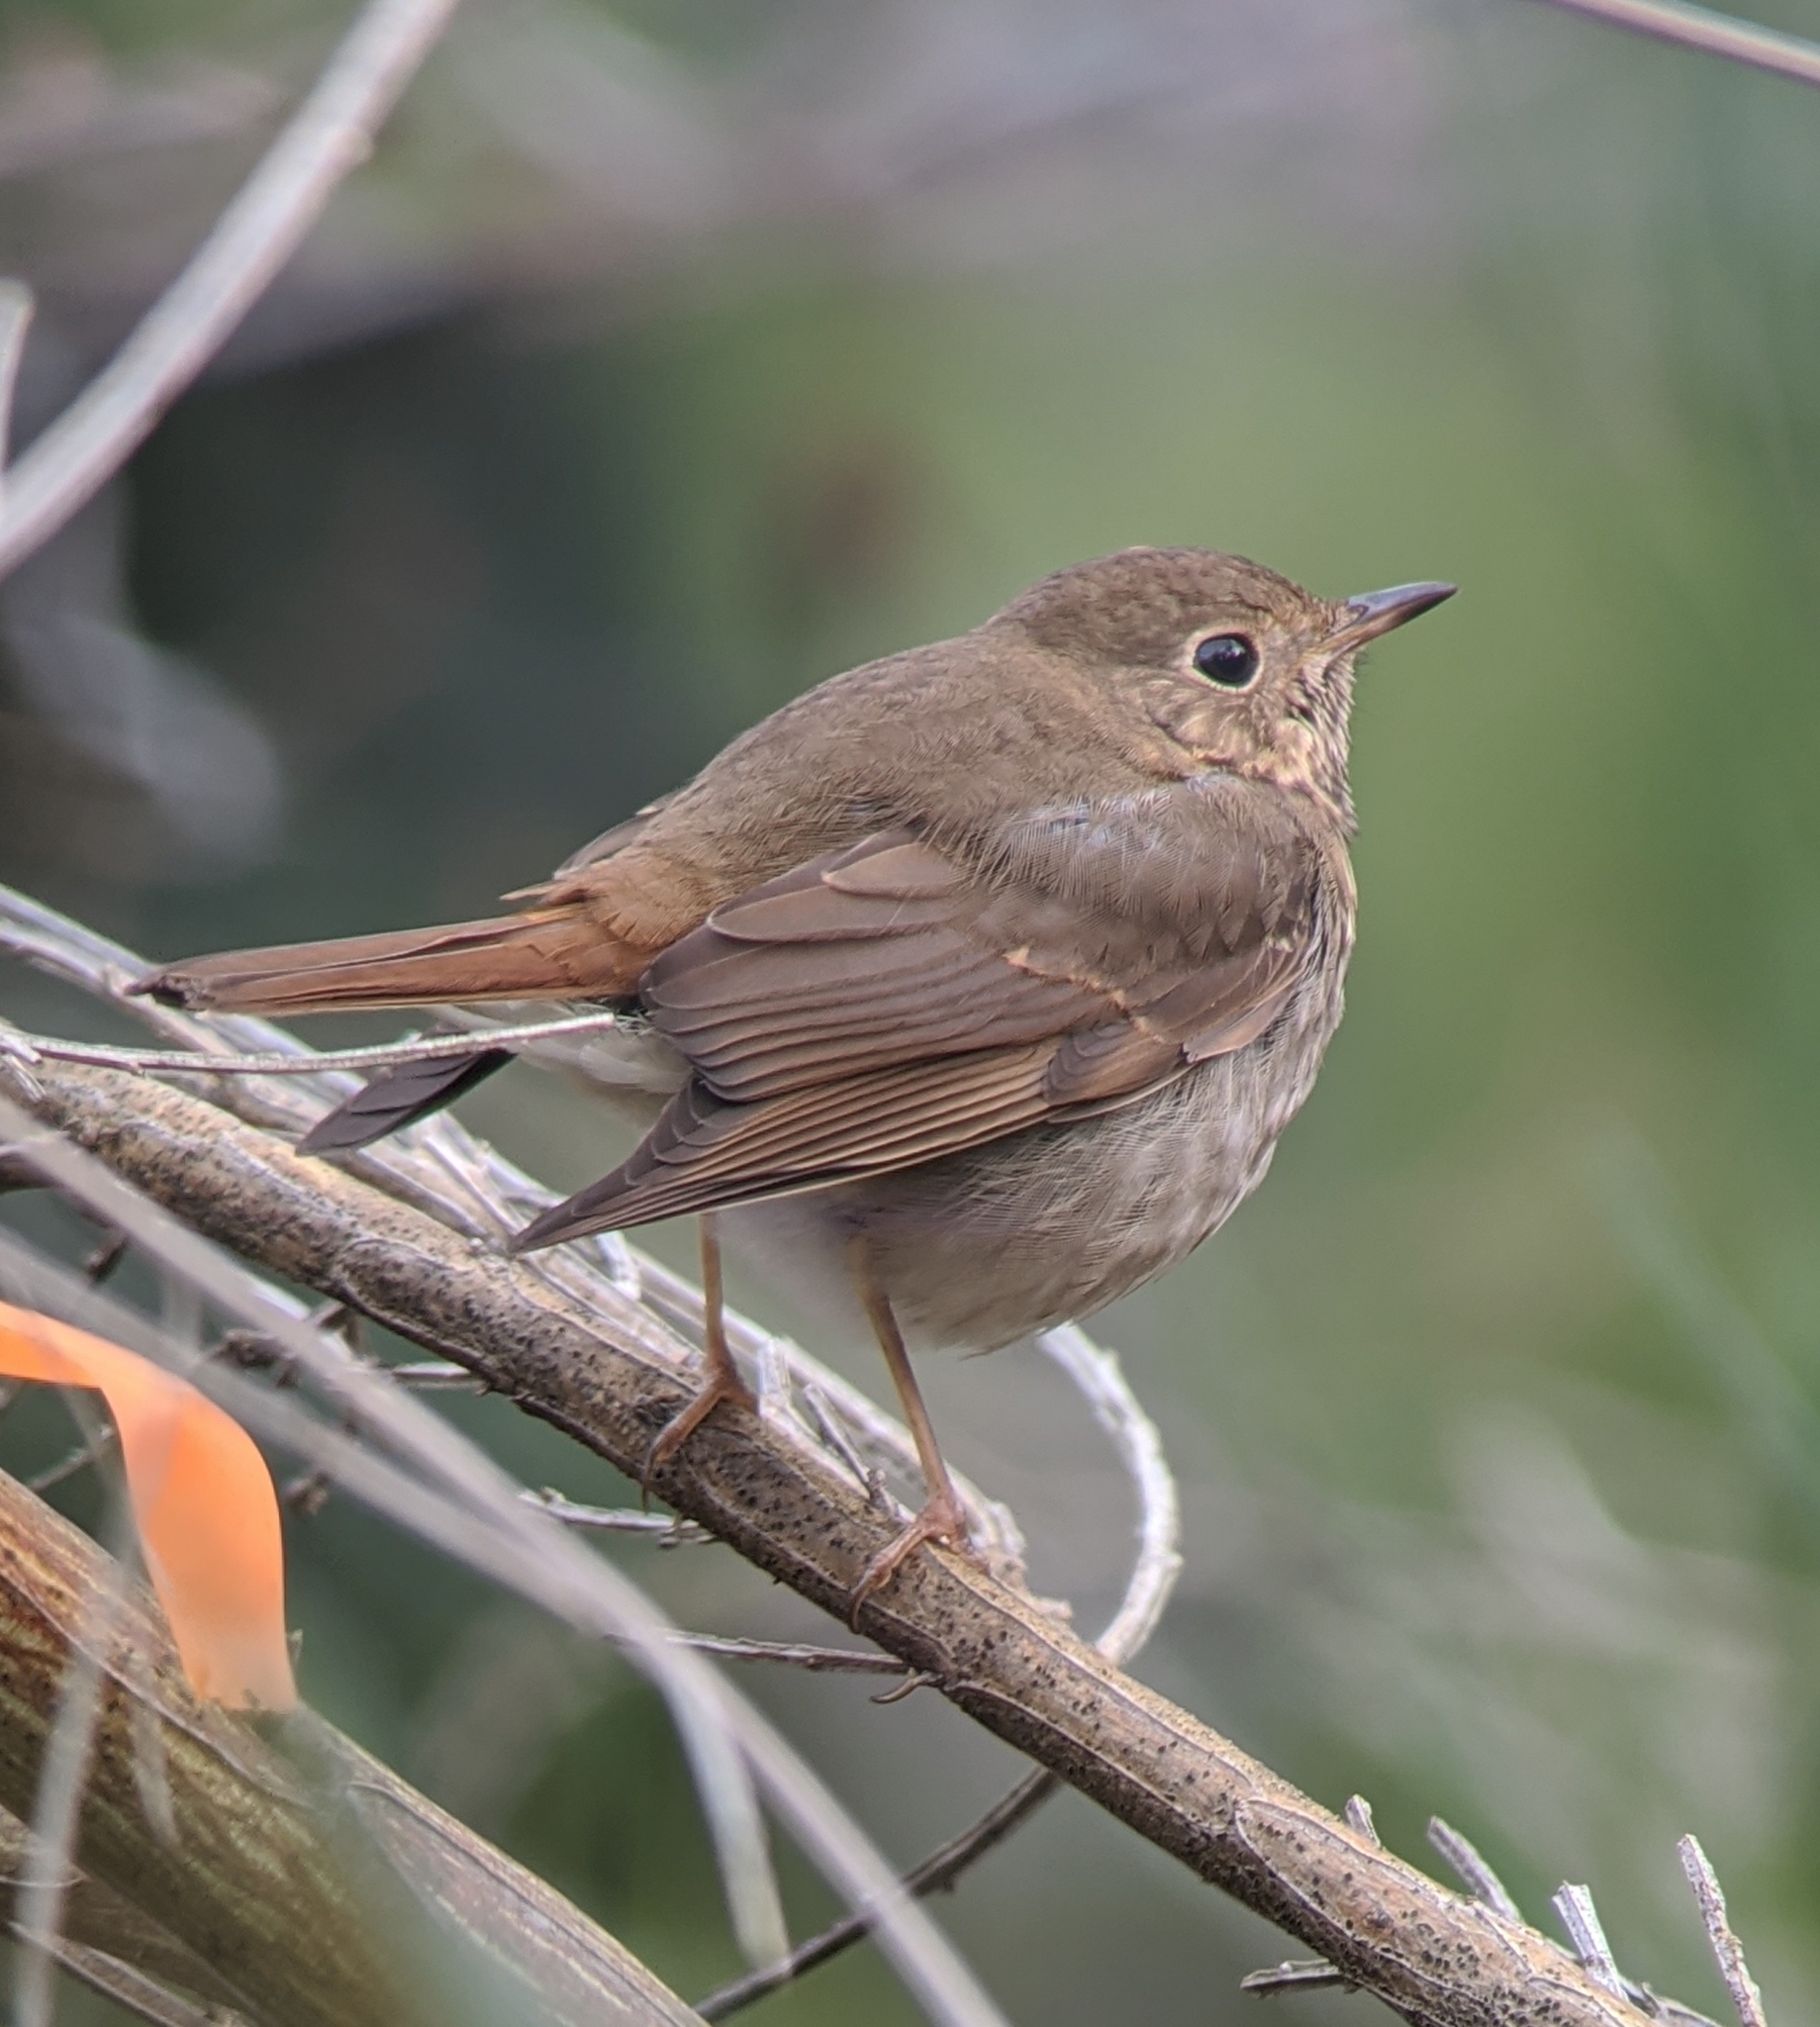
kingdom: Animalia
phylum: Chordata
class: Aves
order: Passeriformes
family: Turdidae
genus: Catharus
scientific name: Catharus guttatus
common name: Hermit thrush
